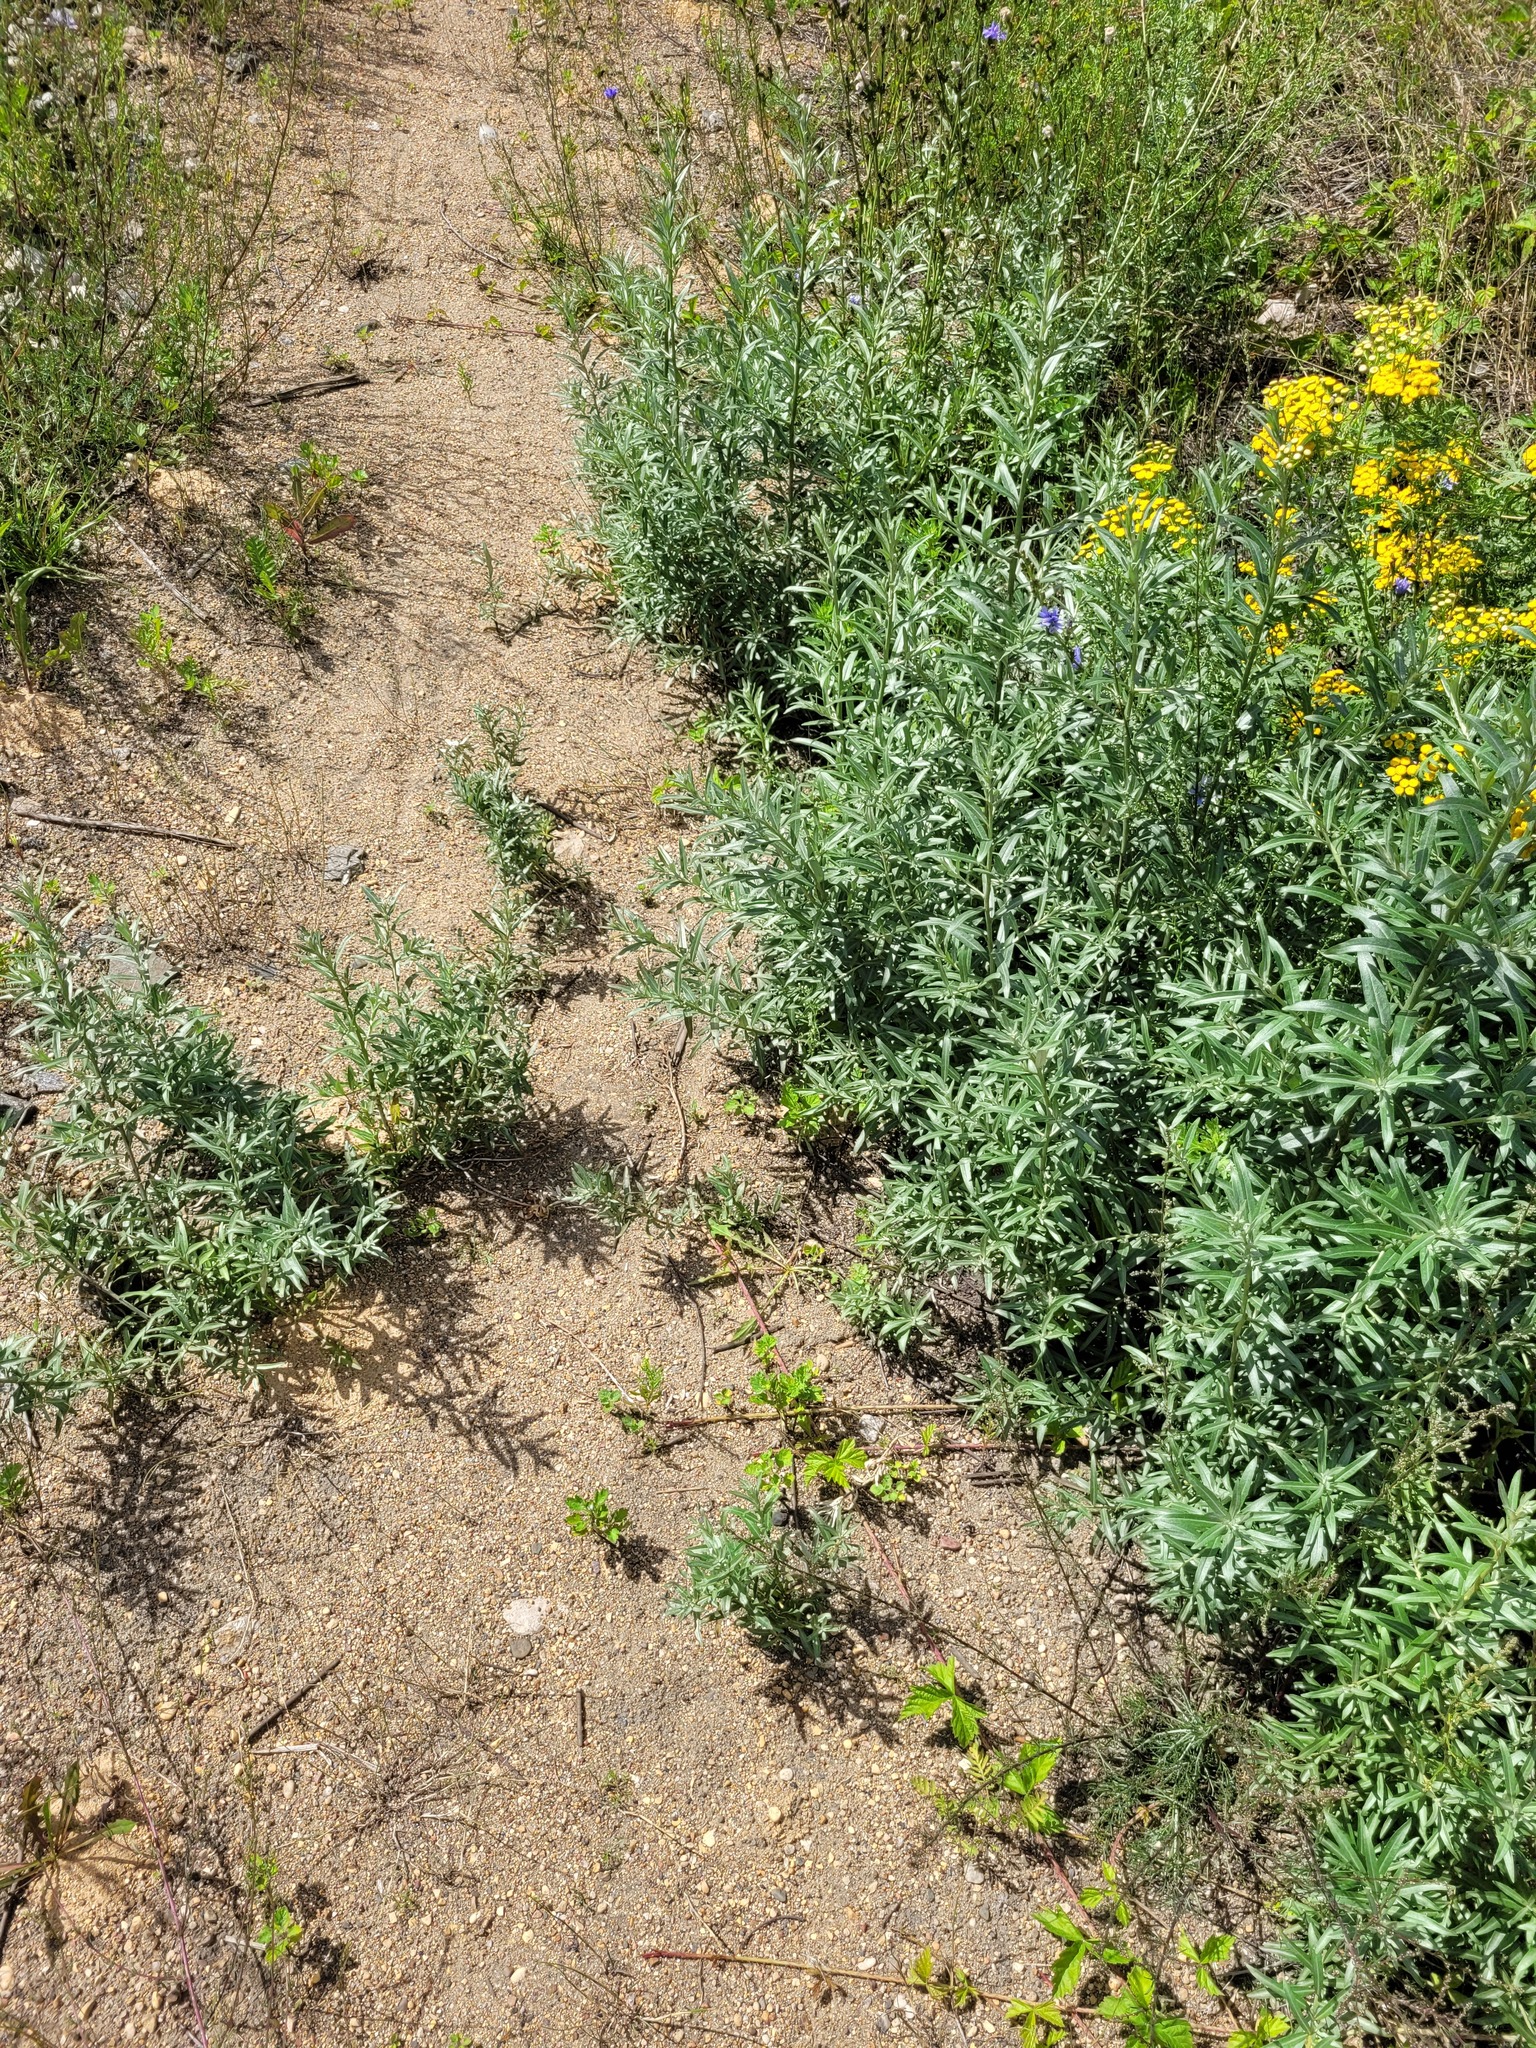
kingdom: Plantae
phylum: Tracheophyta
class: Magnoliopsida
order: Rosales
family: Elaeagnaceae
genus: Hippophae
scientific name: Hippophae rhamnoides
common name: Sea-buckthorn
